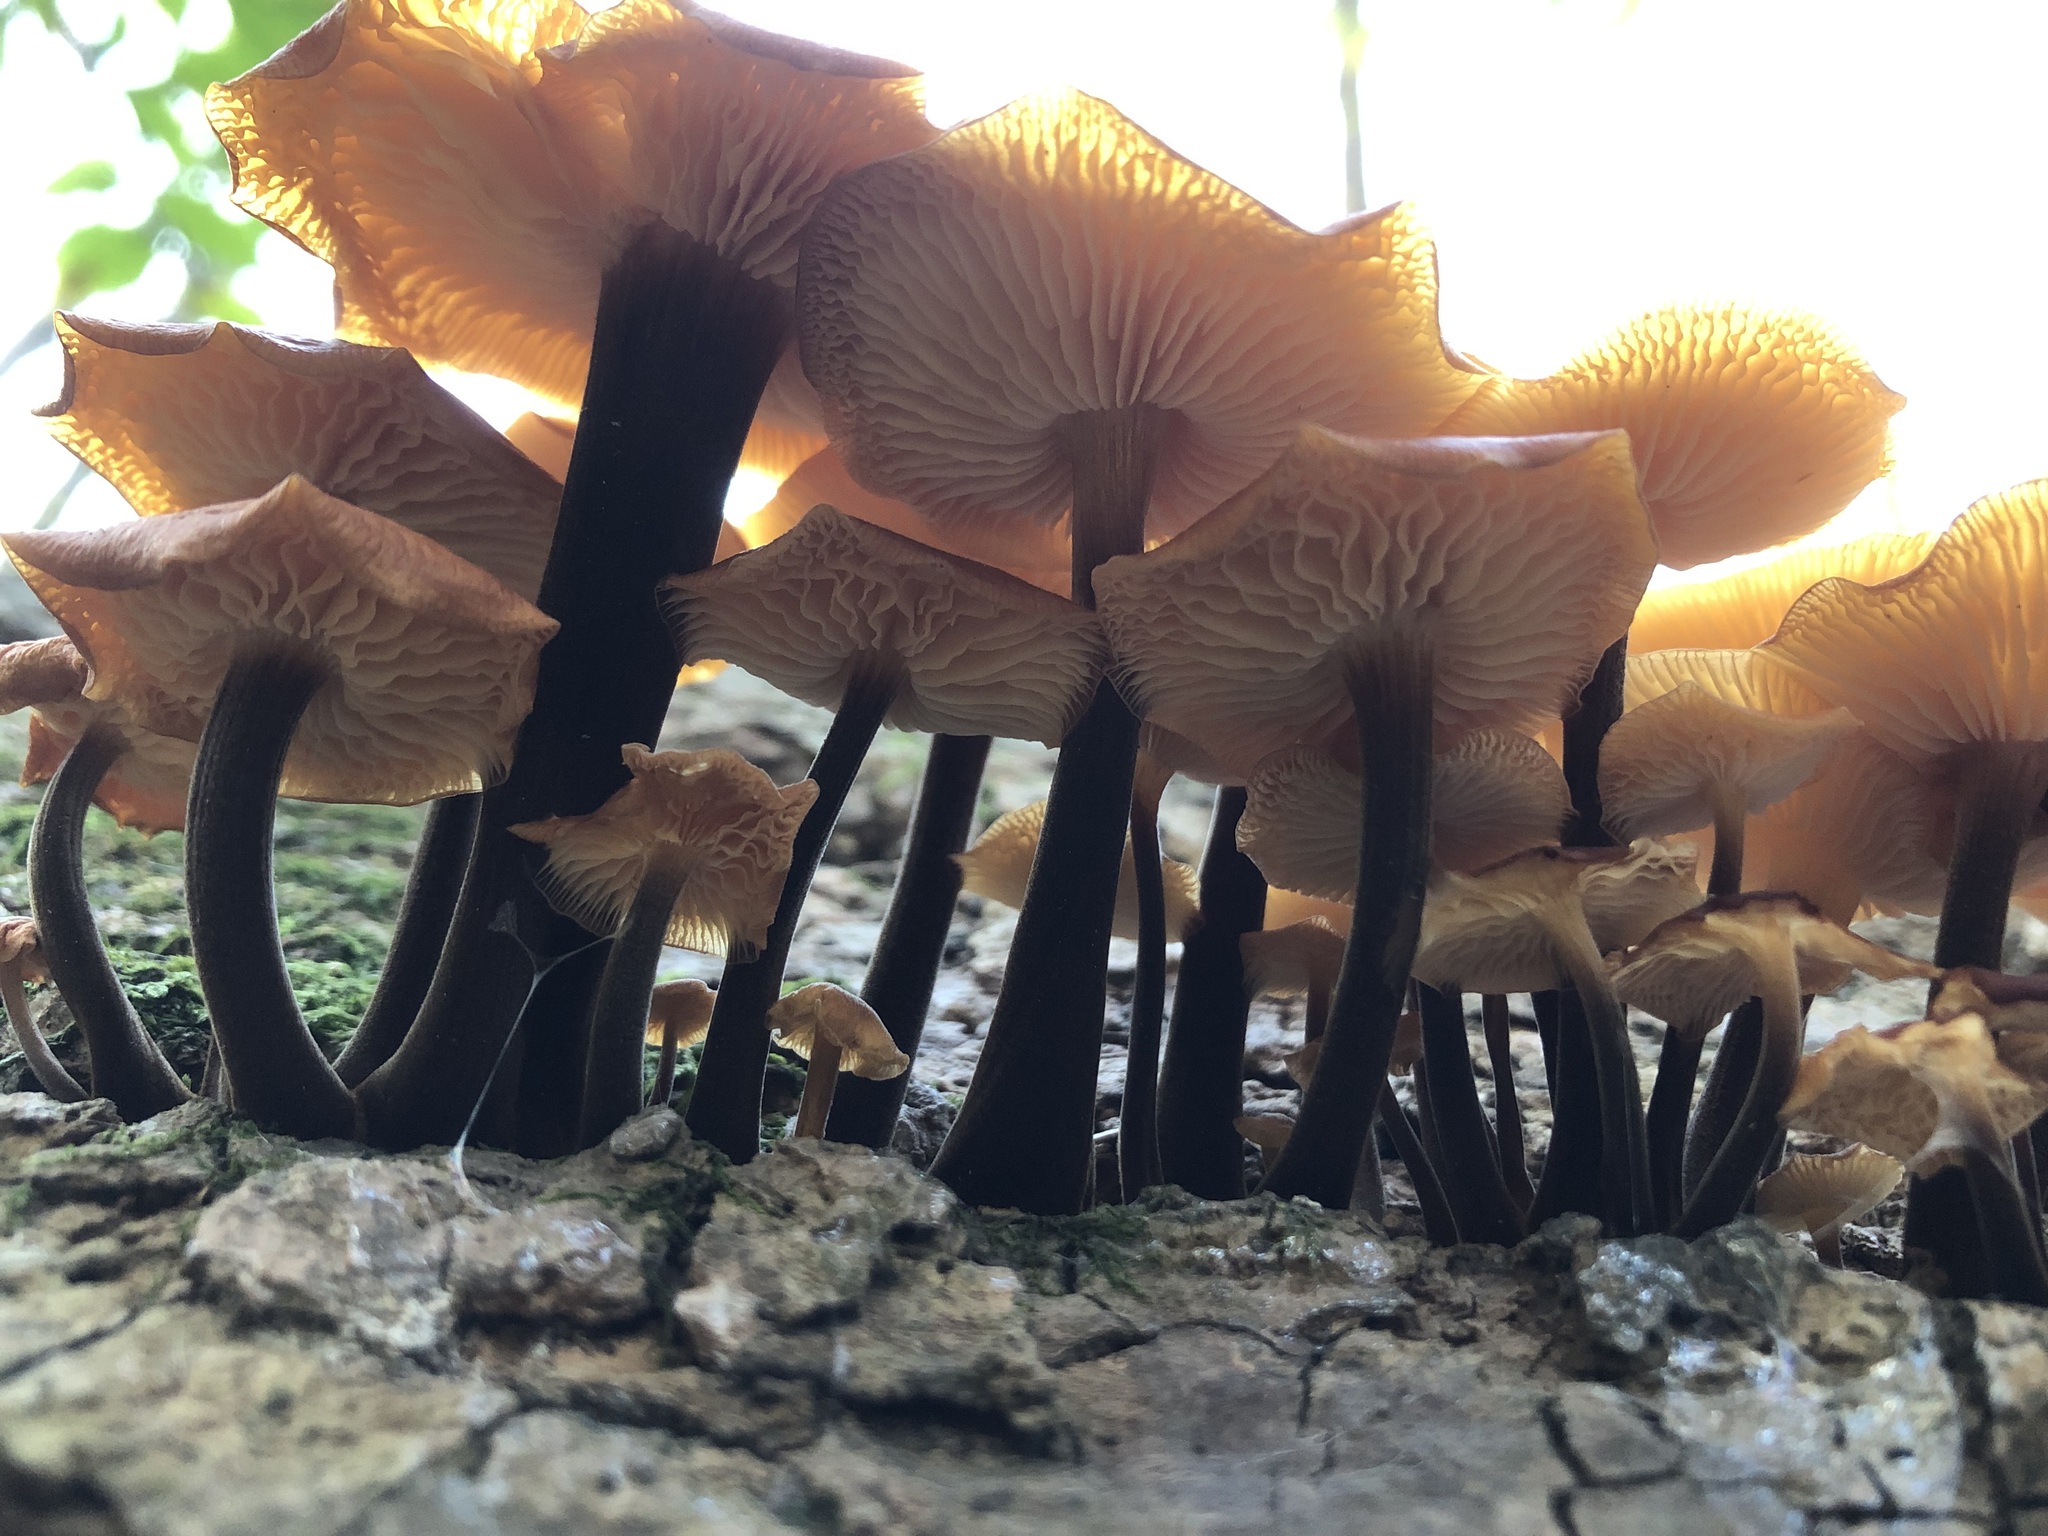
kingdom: Fungi
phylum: Basidiomycota
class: Agaricomycetes
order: Agaricales
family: Physalacriaceae
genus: Flammulina
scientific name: Flammulina velutipes
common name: Velvet shank
